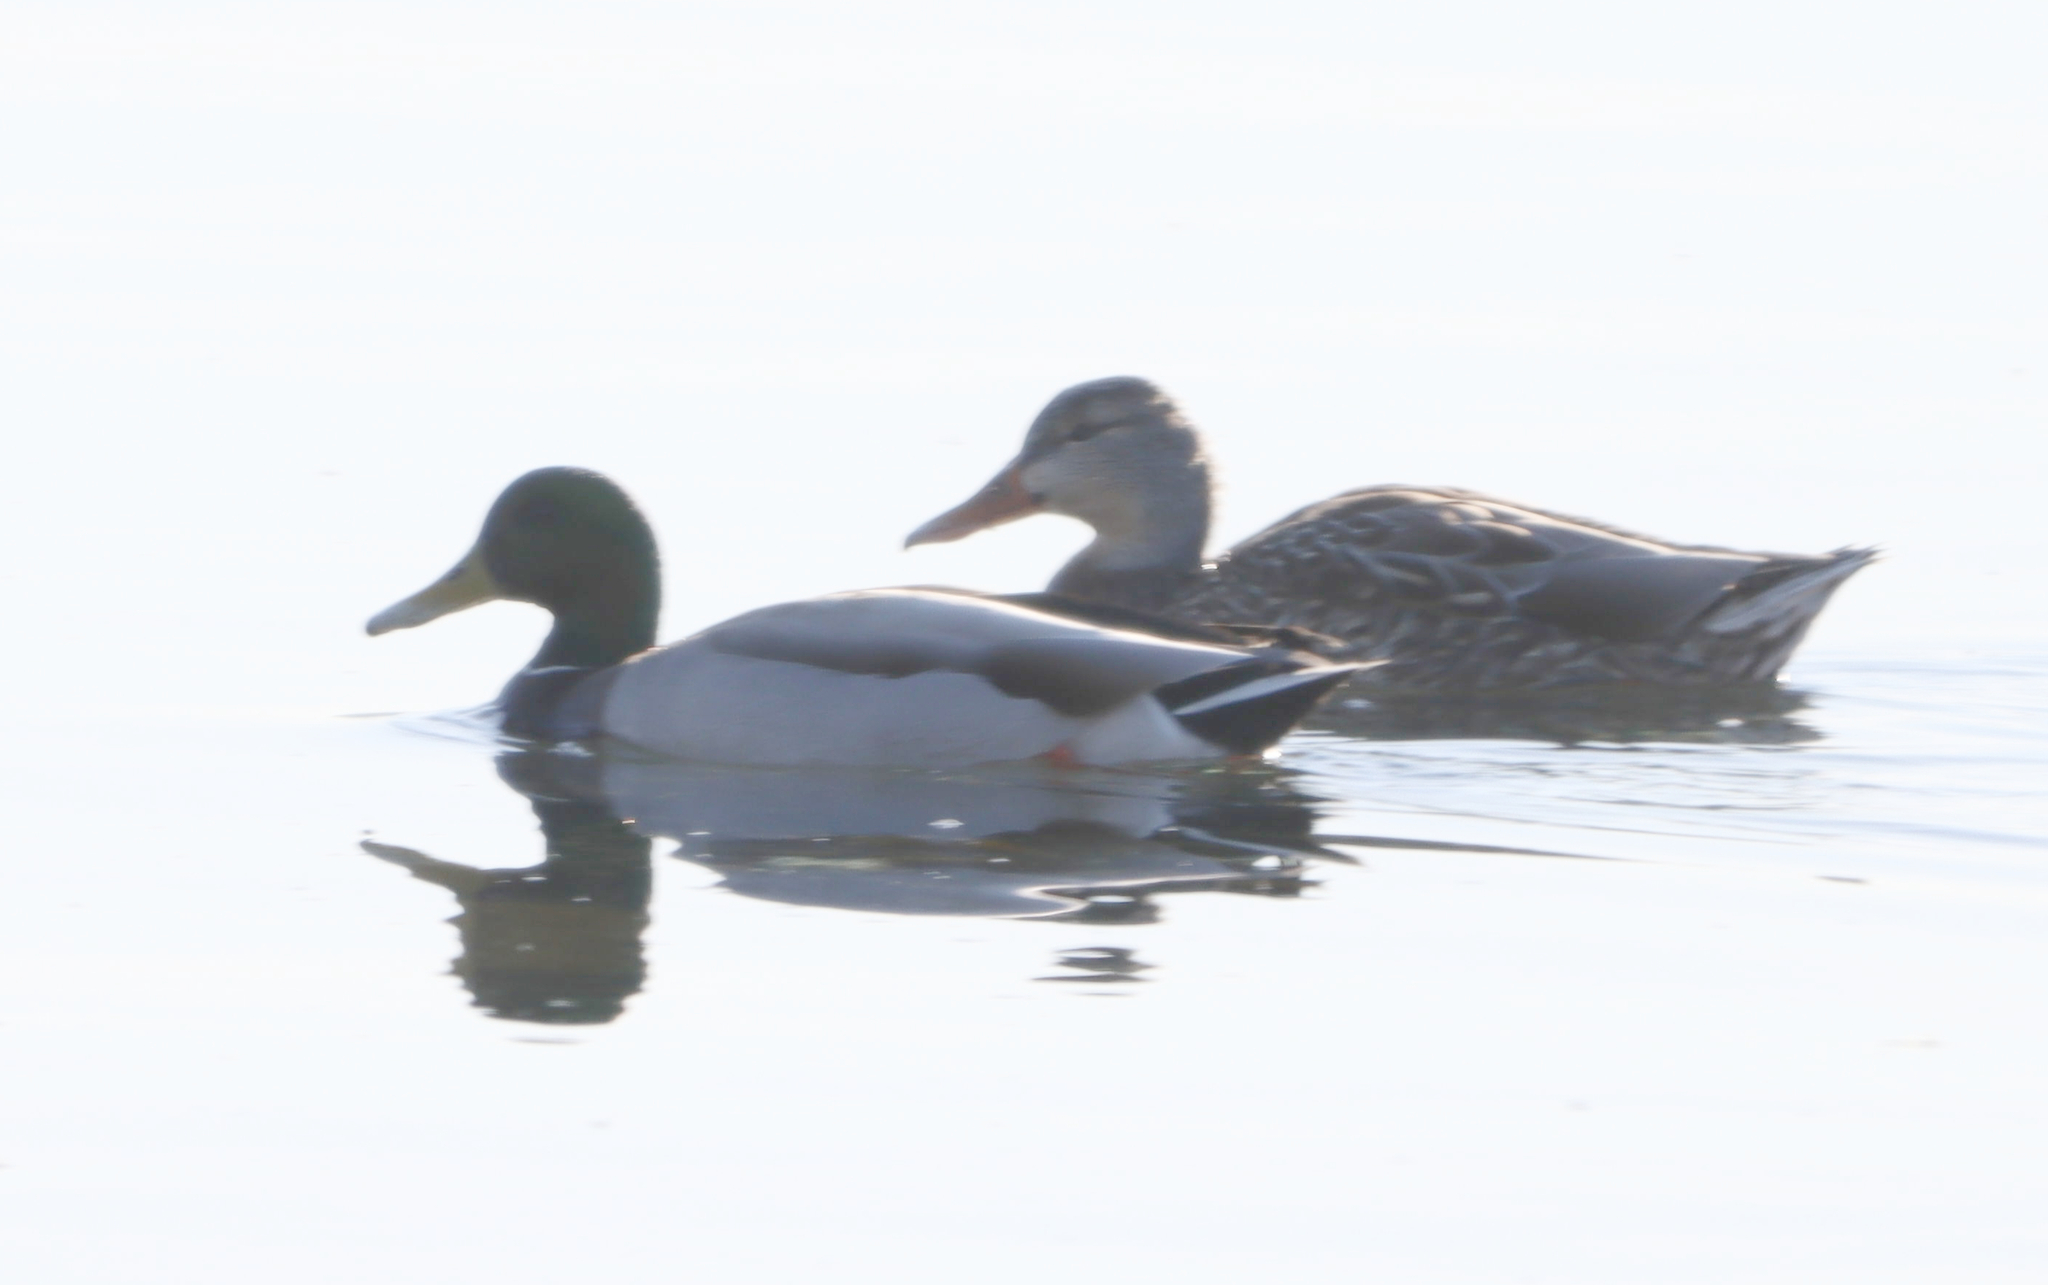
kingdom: Animalia
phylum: Chordata
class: Aves
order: Anseriformes
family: Anatidae
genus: Anas
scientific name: Anas platyrhynchos
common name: Mallard
